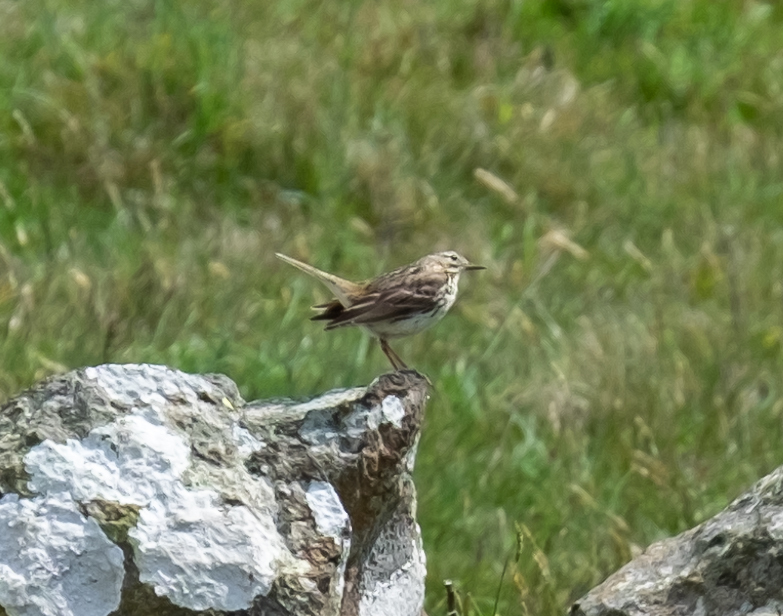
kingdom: Animalia
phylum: Chordata
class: Aves
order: Passeriformes
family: Motacillidae
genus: Anthus
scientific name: Anthus pratensis
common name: Meadow pipit
